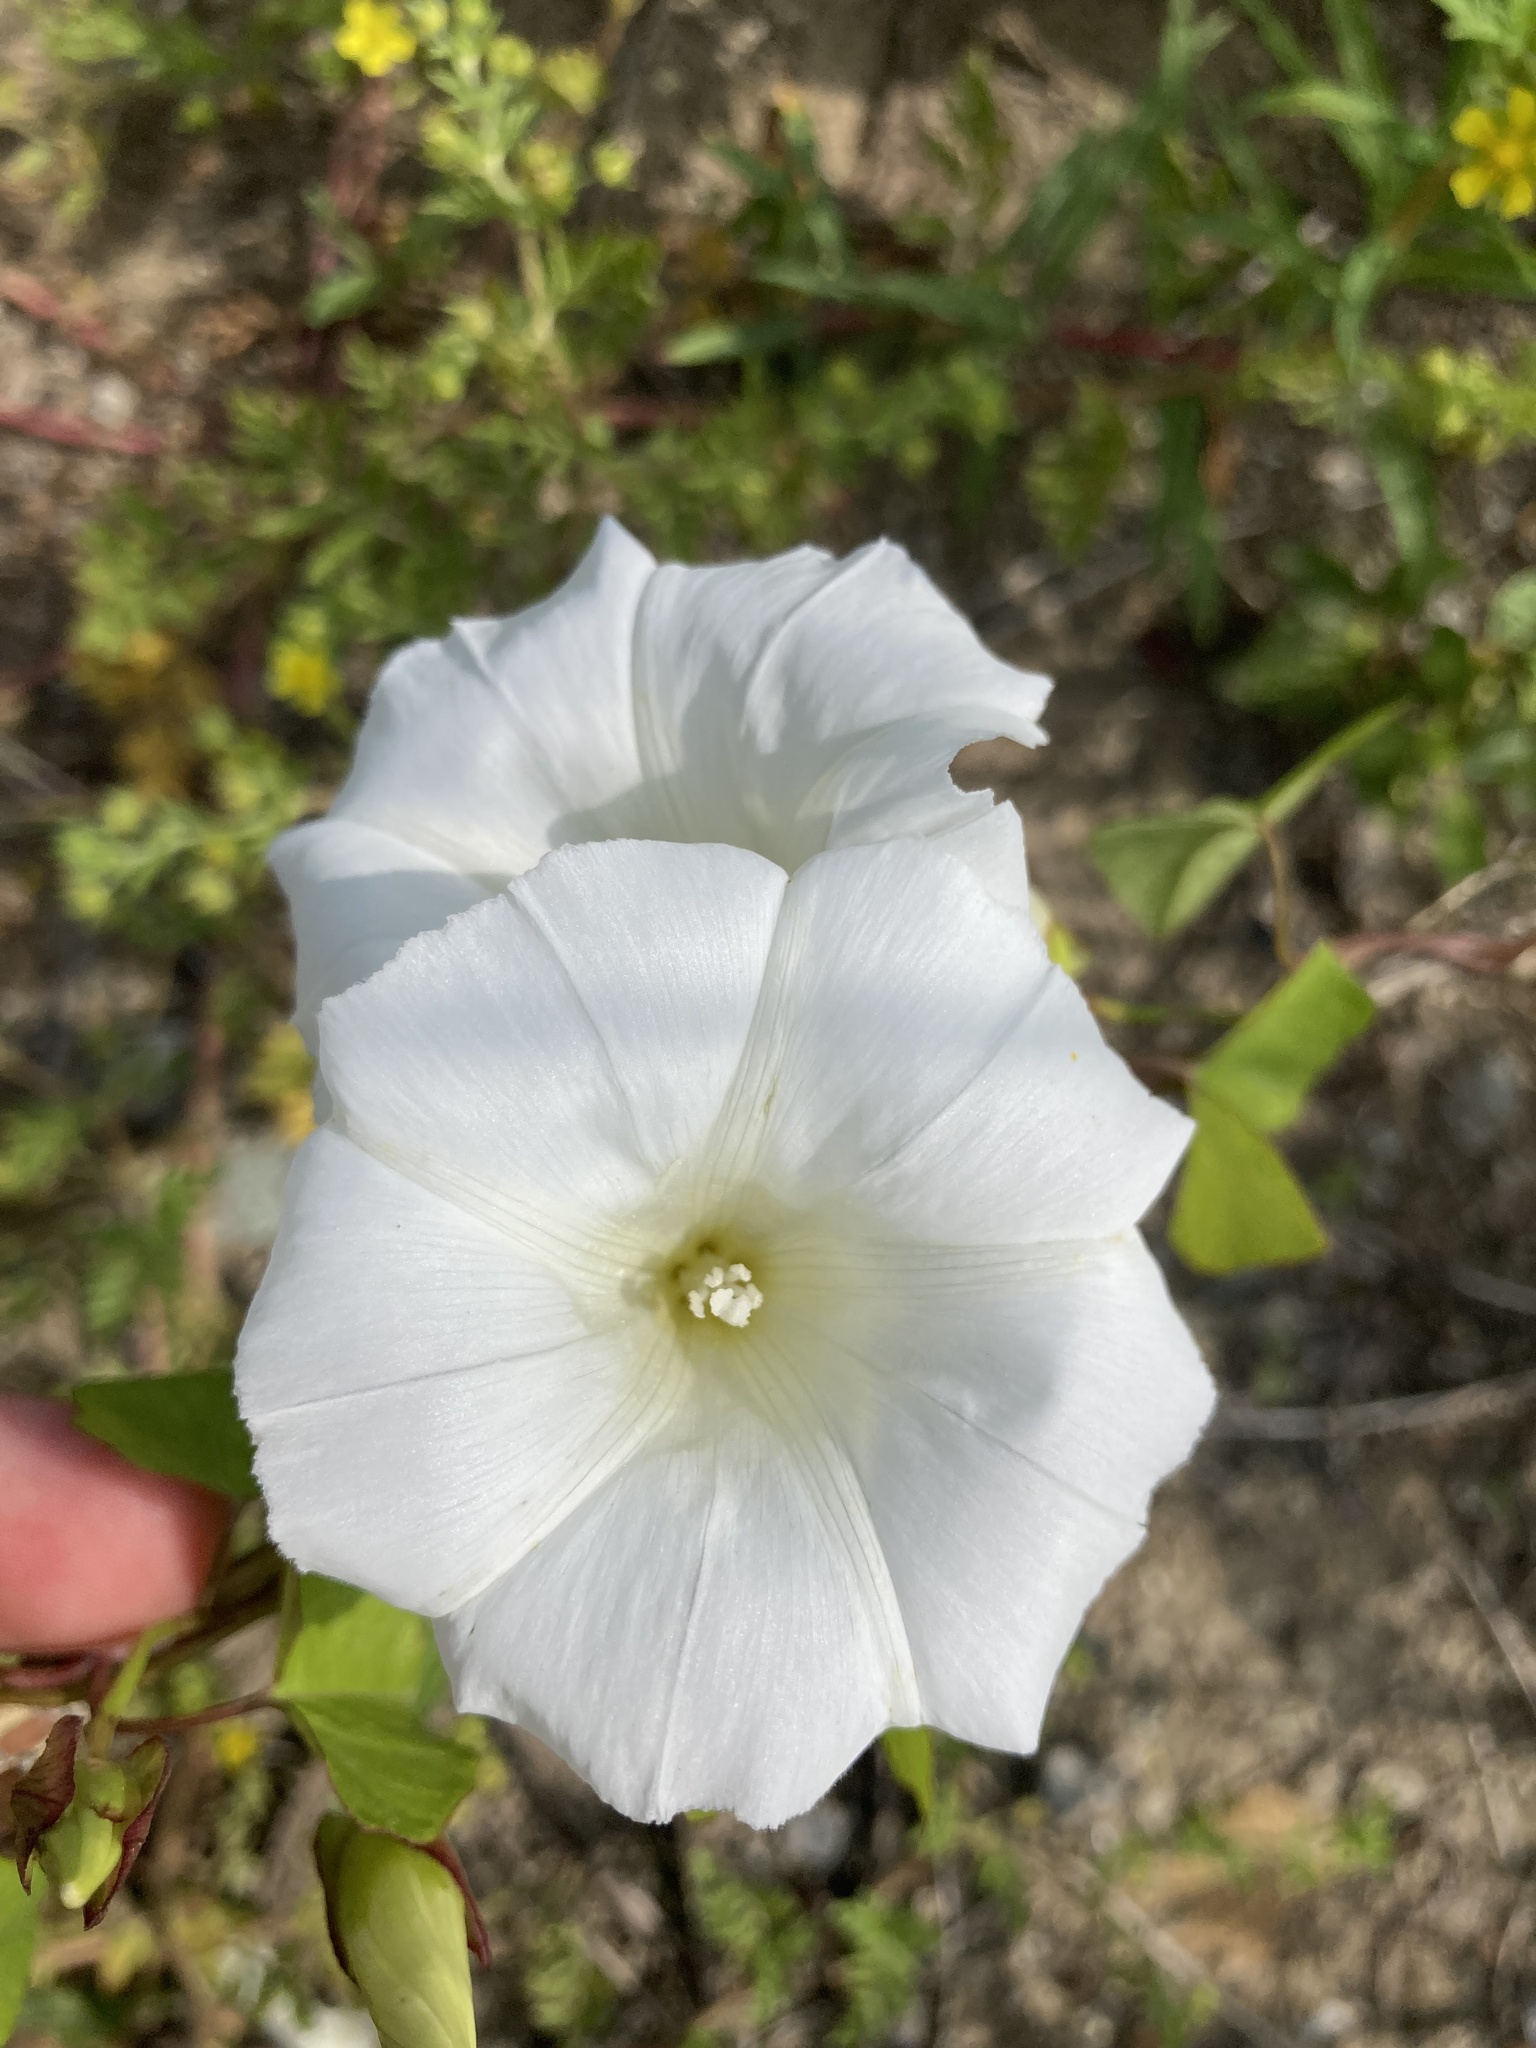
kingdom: Plantae
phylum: Tracheophyta
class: Magnoliopsida
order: Solanales
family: Convolvulaceae
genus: Calystegia
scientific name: Calystegia sepium
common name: Hedge bindweed
